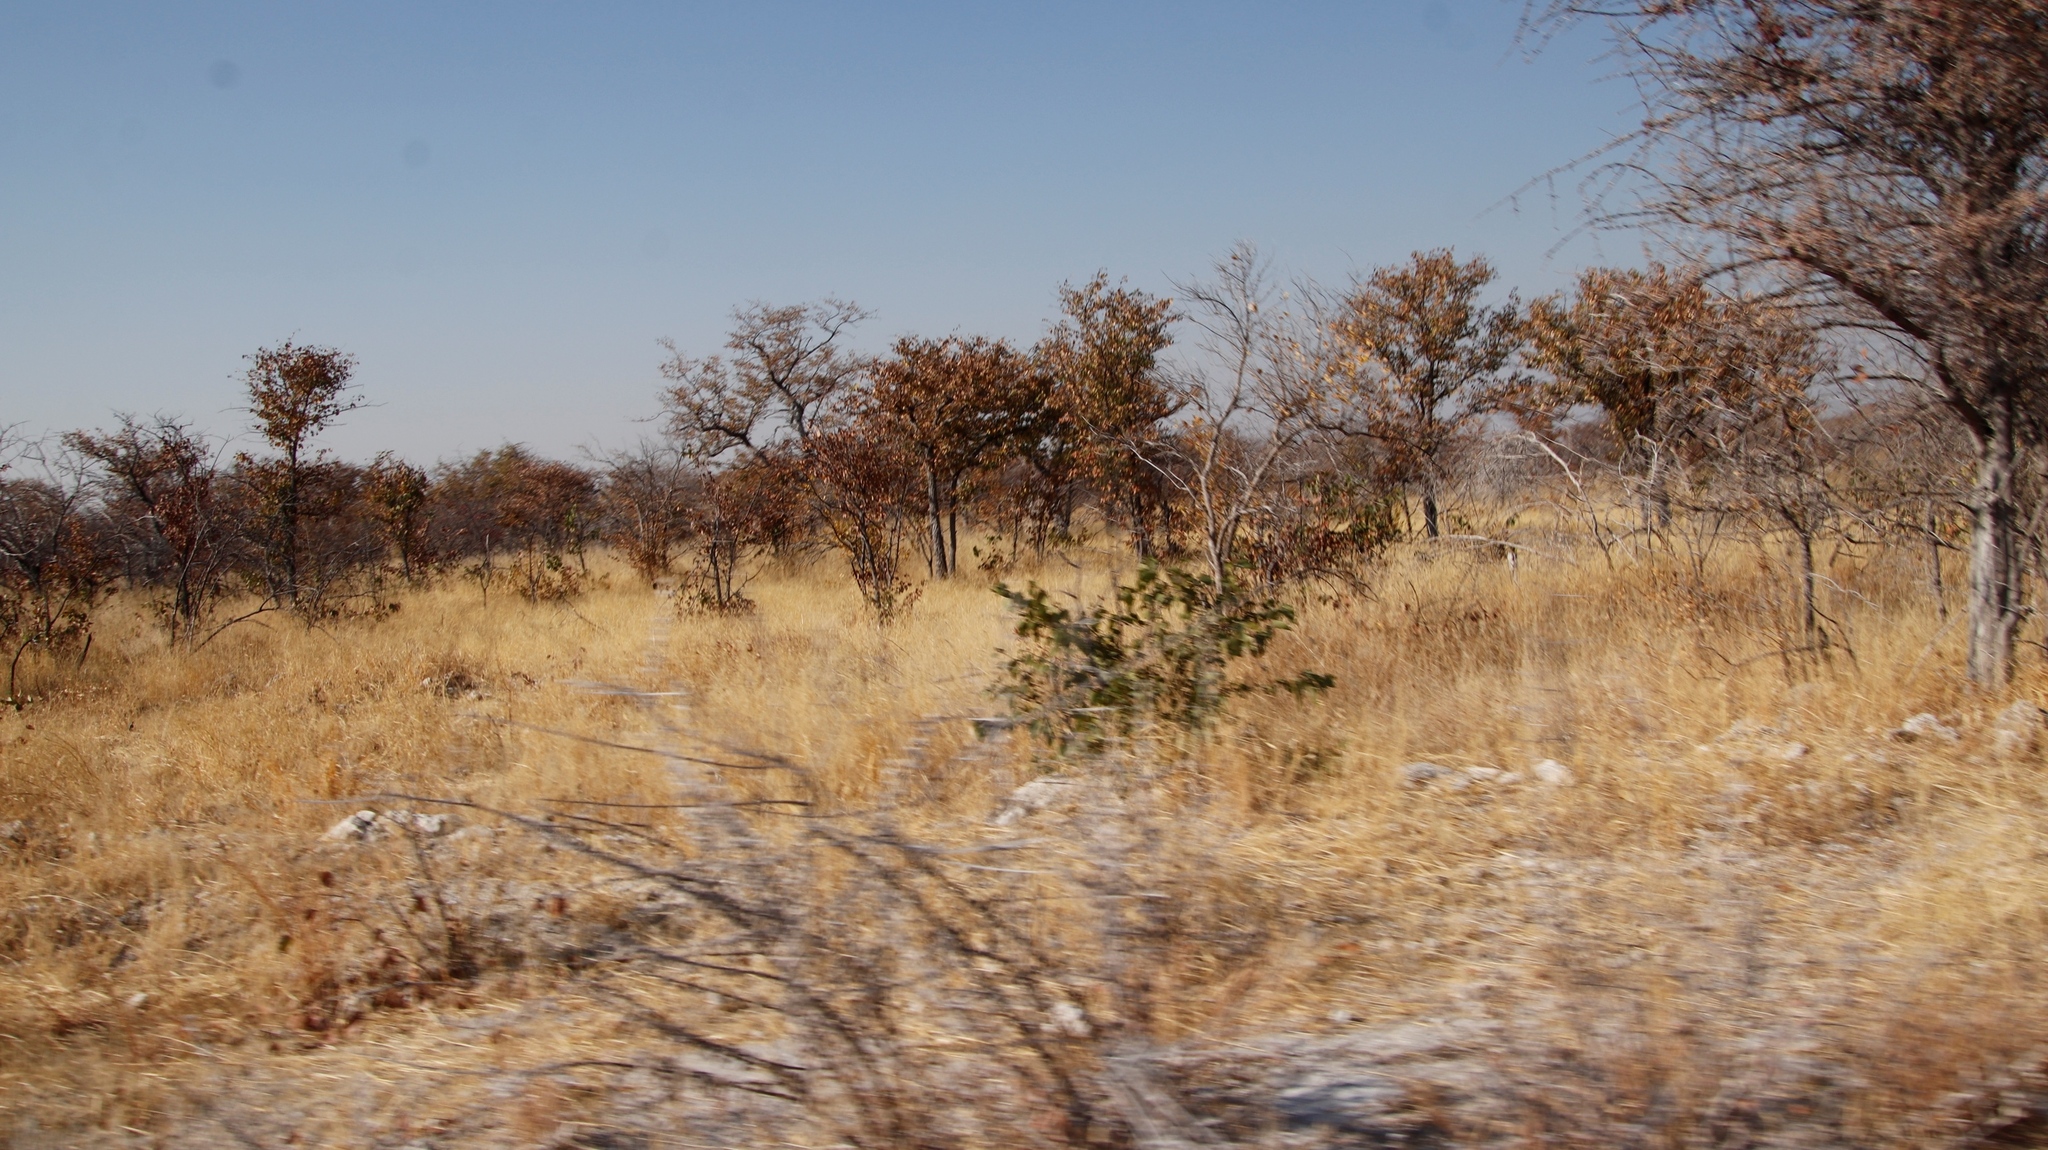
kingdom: Plantae
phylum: Tracheophyta
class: Magnoliopsida
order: Fabales
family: Fabaceae
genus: Colophospermum
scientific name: Colophospermum mopane
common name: Mopane
